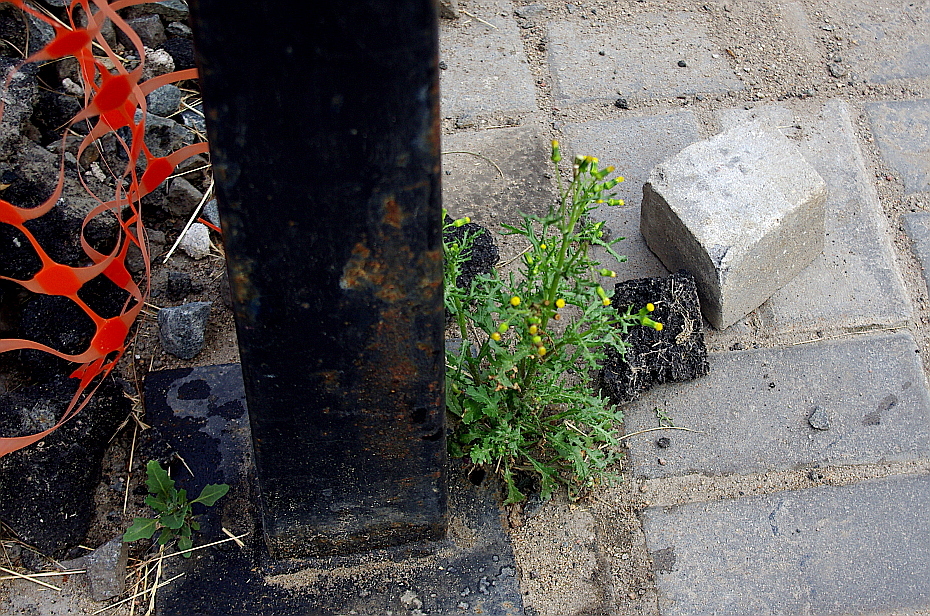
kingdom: Plantae
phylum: Tracheophyta
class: Magnoliopsida
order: Asterales
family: Asteraceae
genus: Senecio
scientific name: Senecio vulgaris
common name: Old-man-in-the-spring
